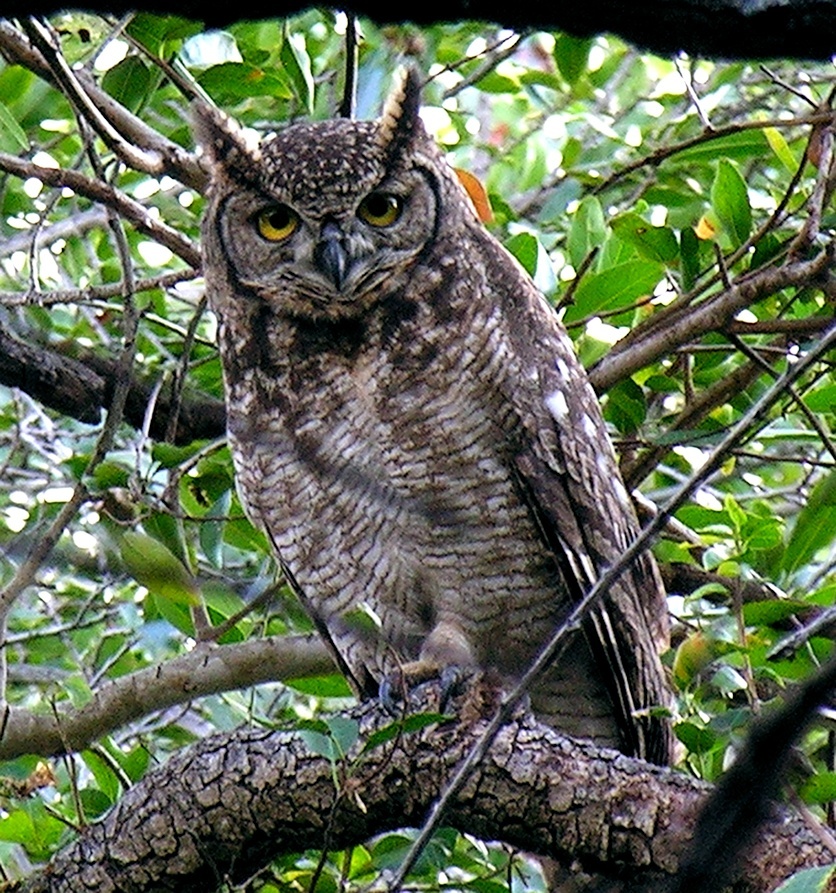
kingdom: Animalia
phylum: Chordata
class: Aves
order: Strigiformes
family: Strigidae
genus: Bubo
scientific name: Bubo africanus
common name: Spotted eagle-owl
